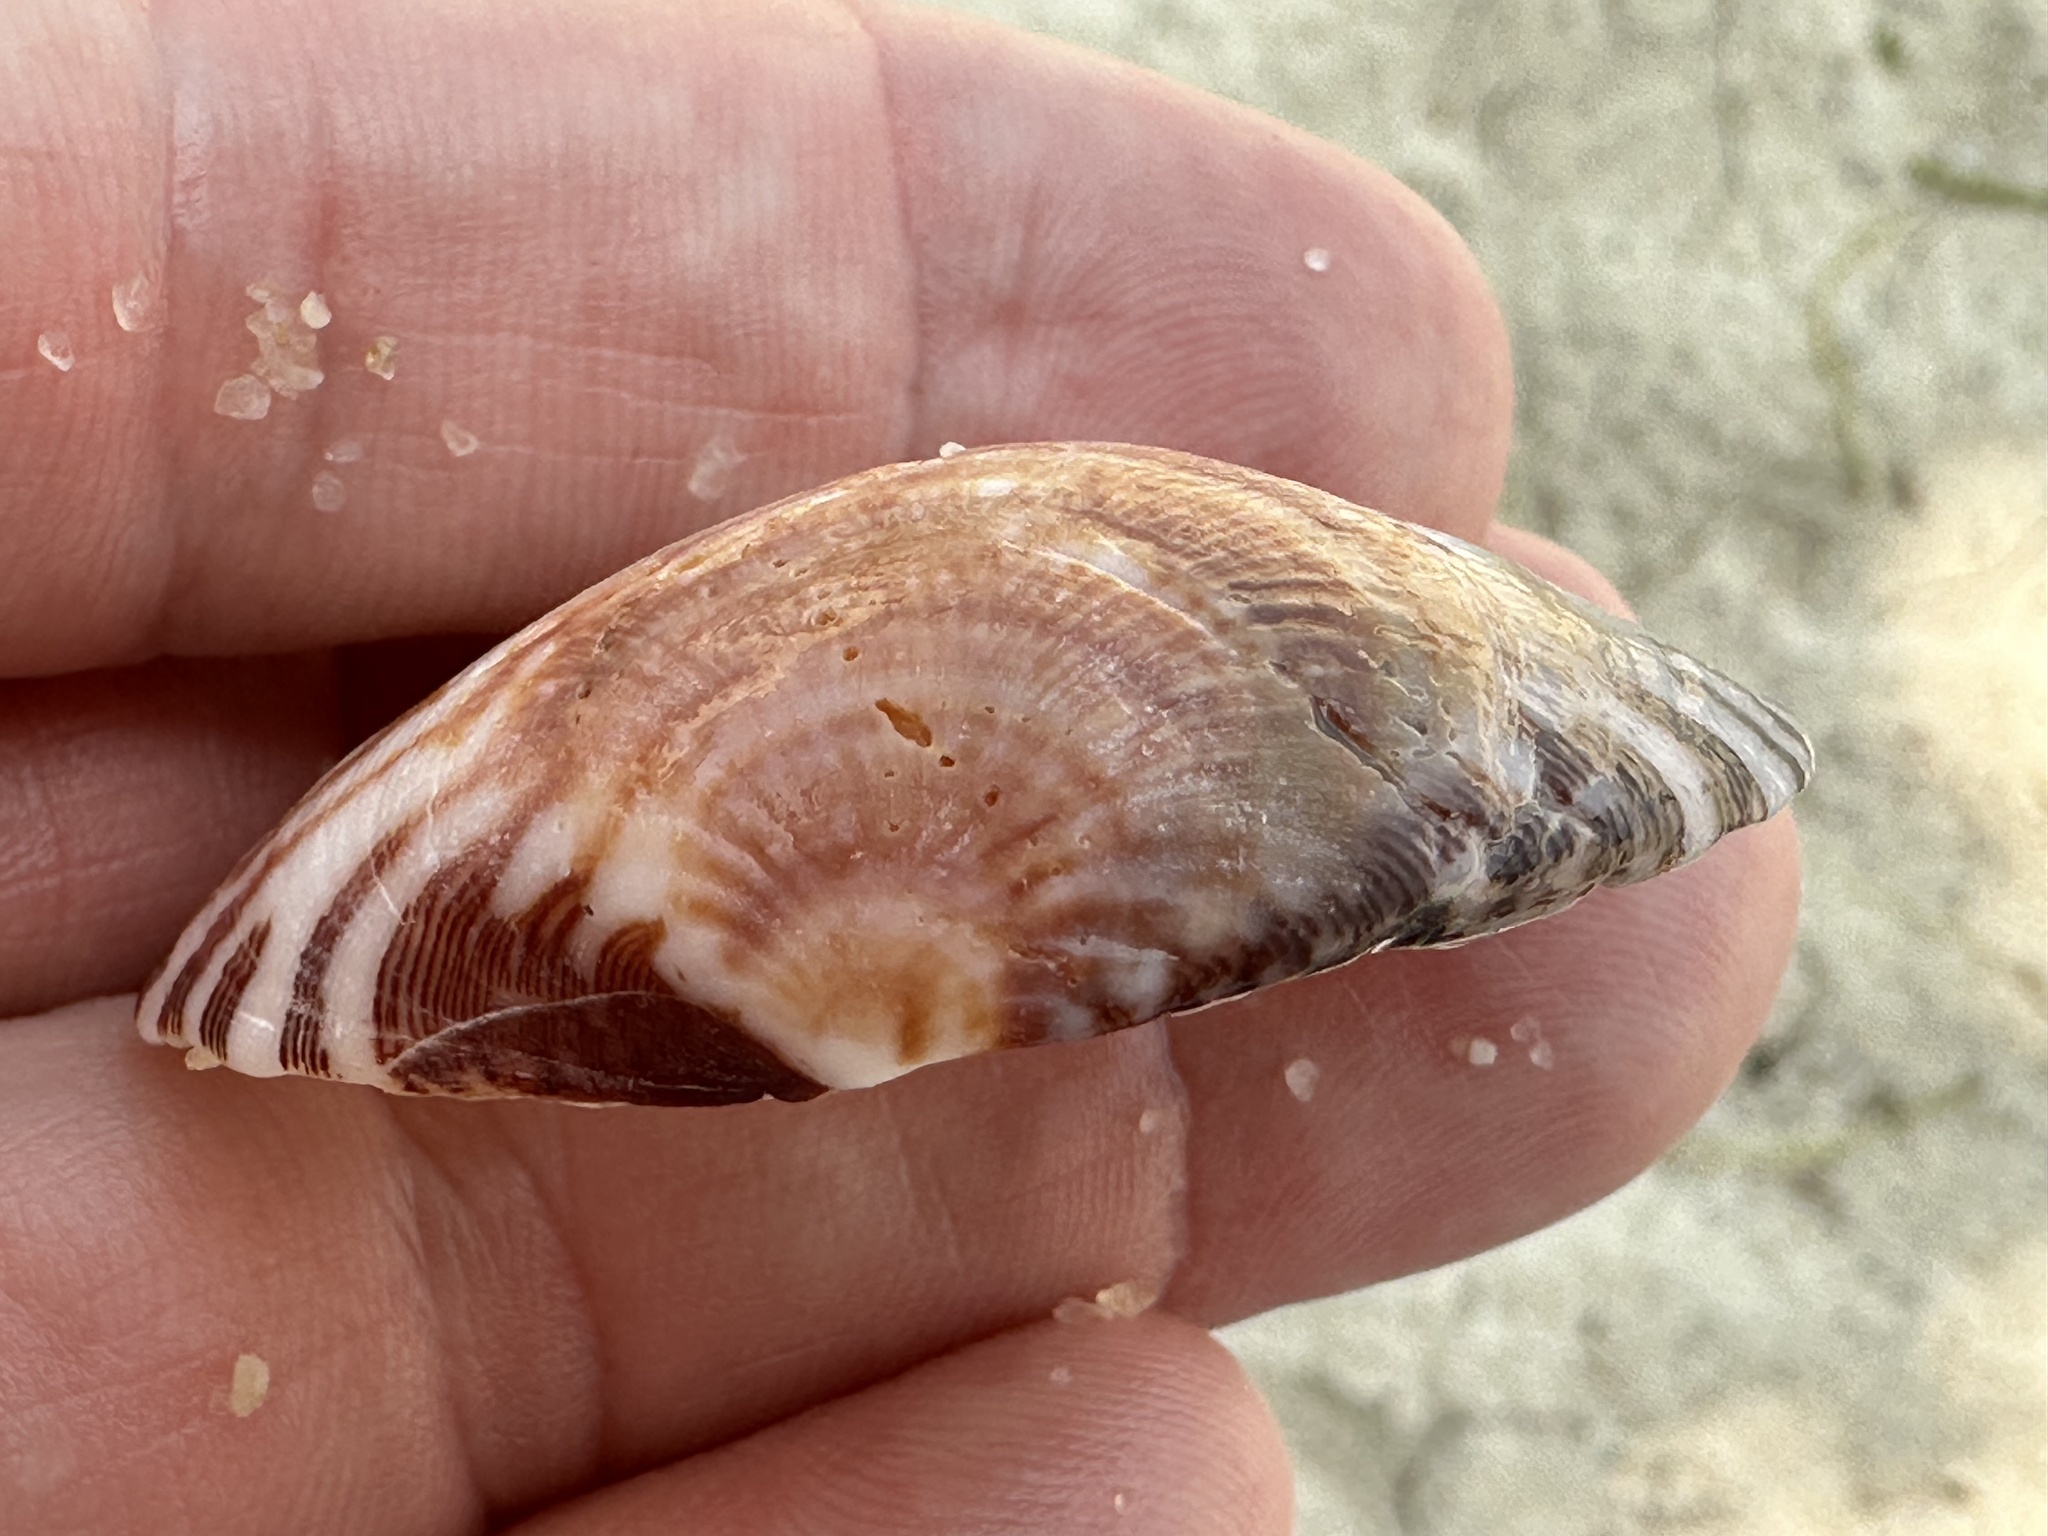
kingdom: Animalia
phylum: Mollusca
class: Bivalvia
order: Venerida
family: Veneridae
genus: Gafrarium
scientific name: Gafrarium divaricatum
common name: Forked venus
